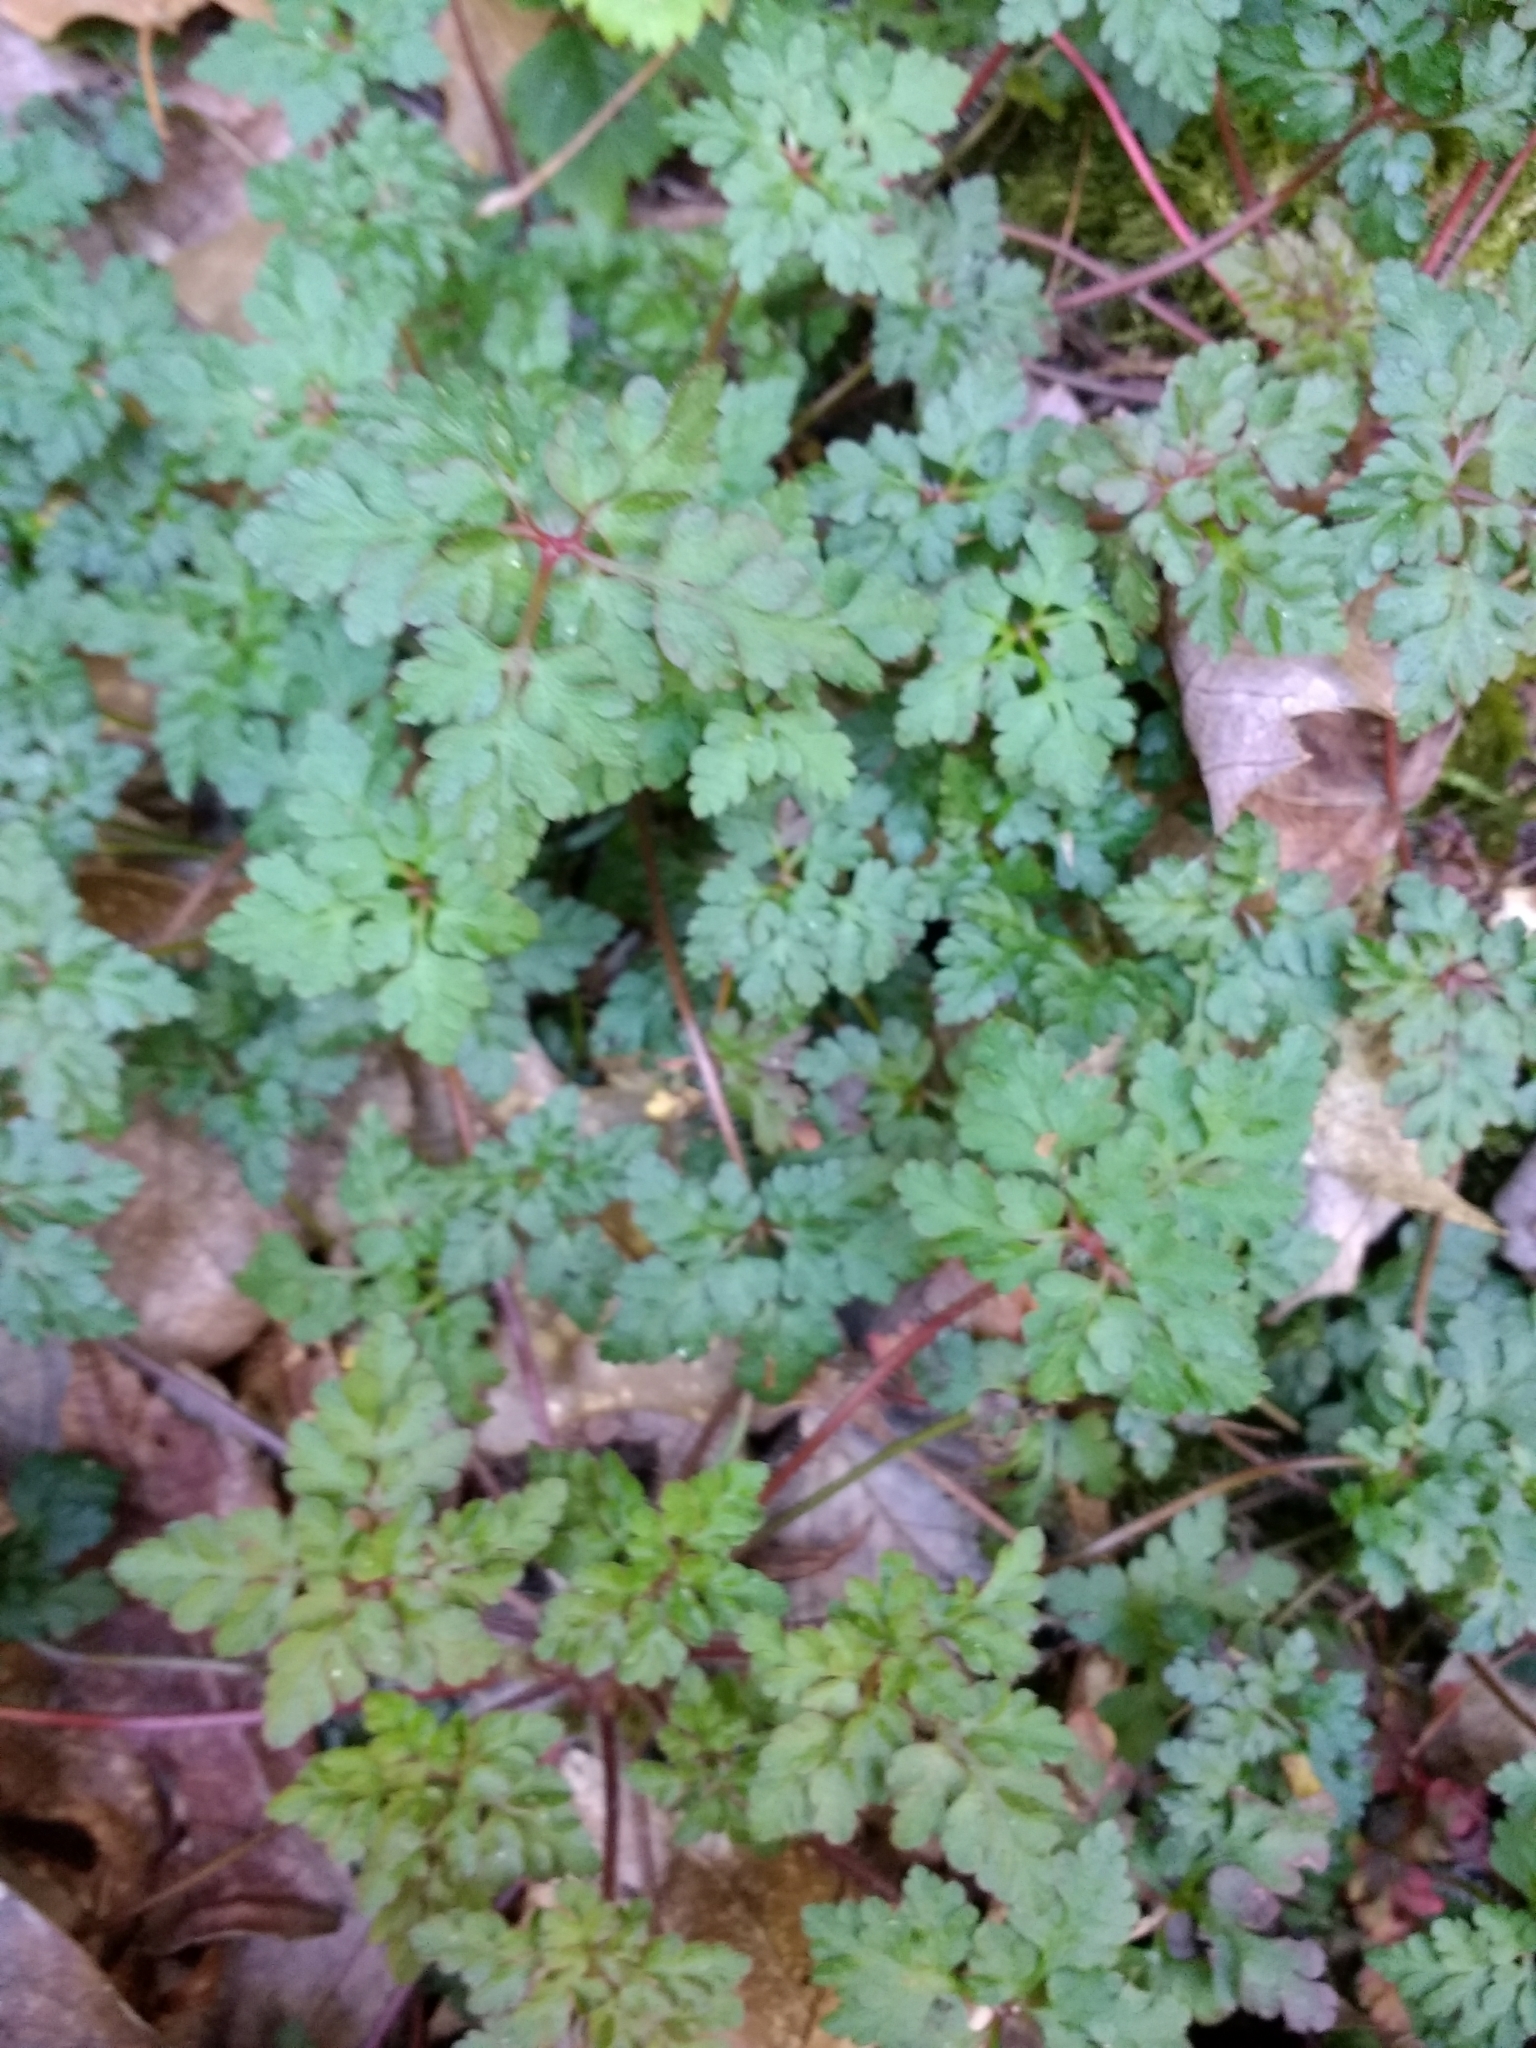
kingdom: Plantae
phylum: Tracheophyta
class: Magnoliopsida
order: Geraniales
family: Geraniaceae
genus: Geranium
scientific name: Geranium robertianum
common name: Herb-robert
